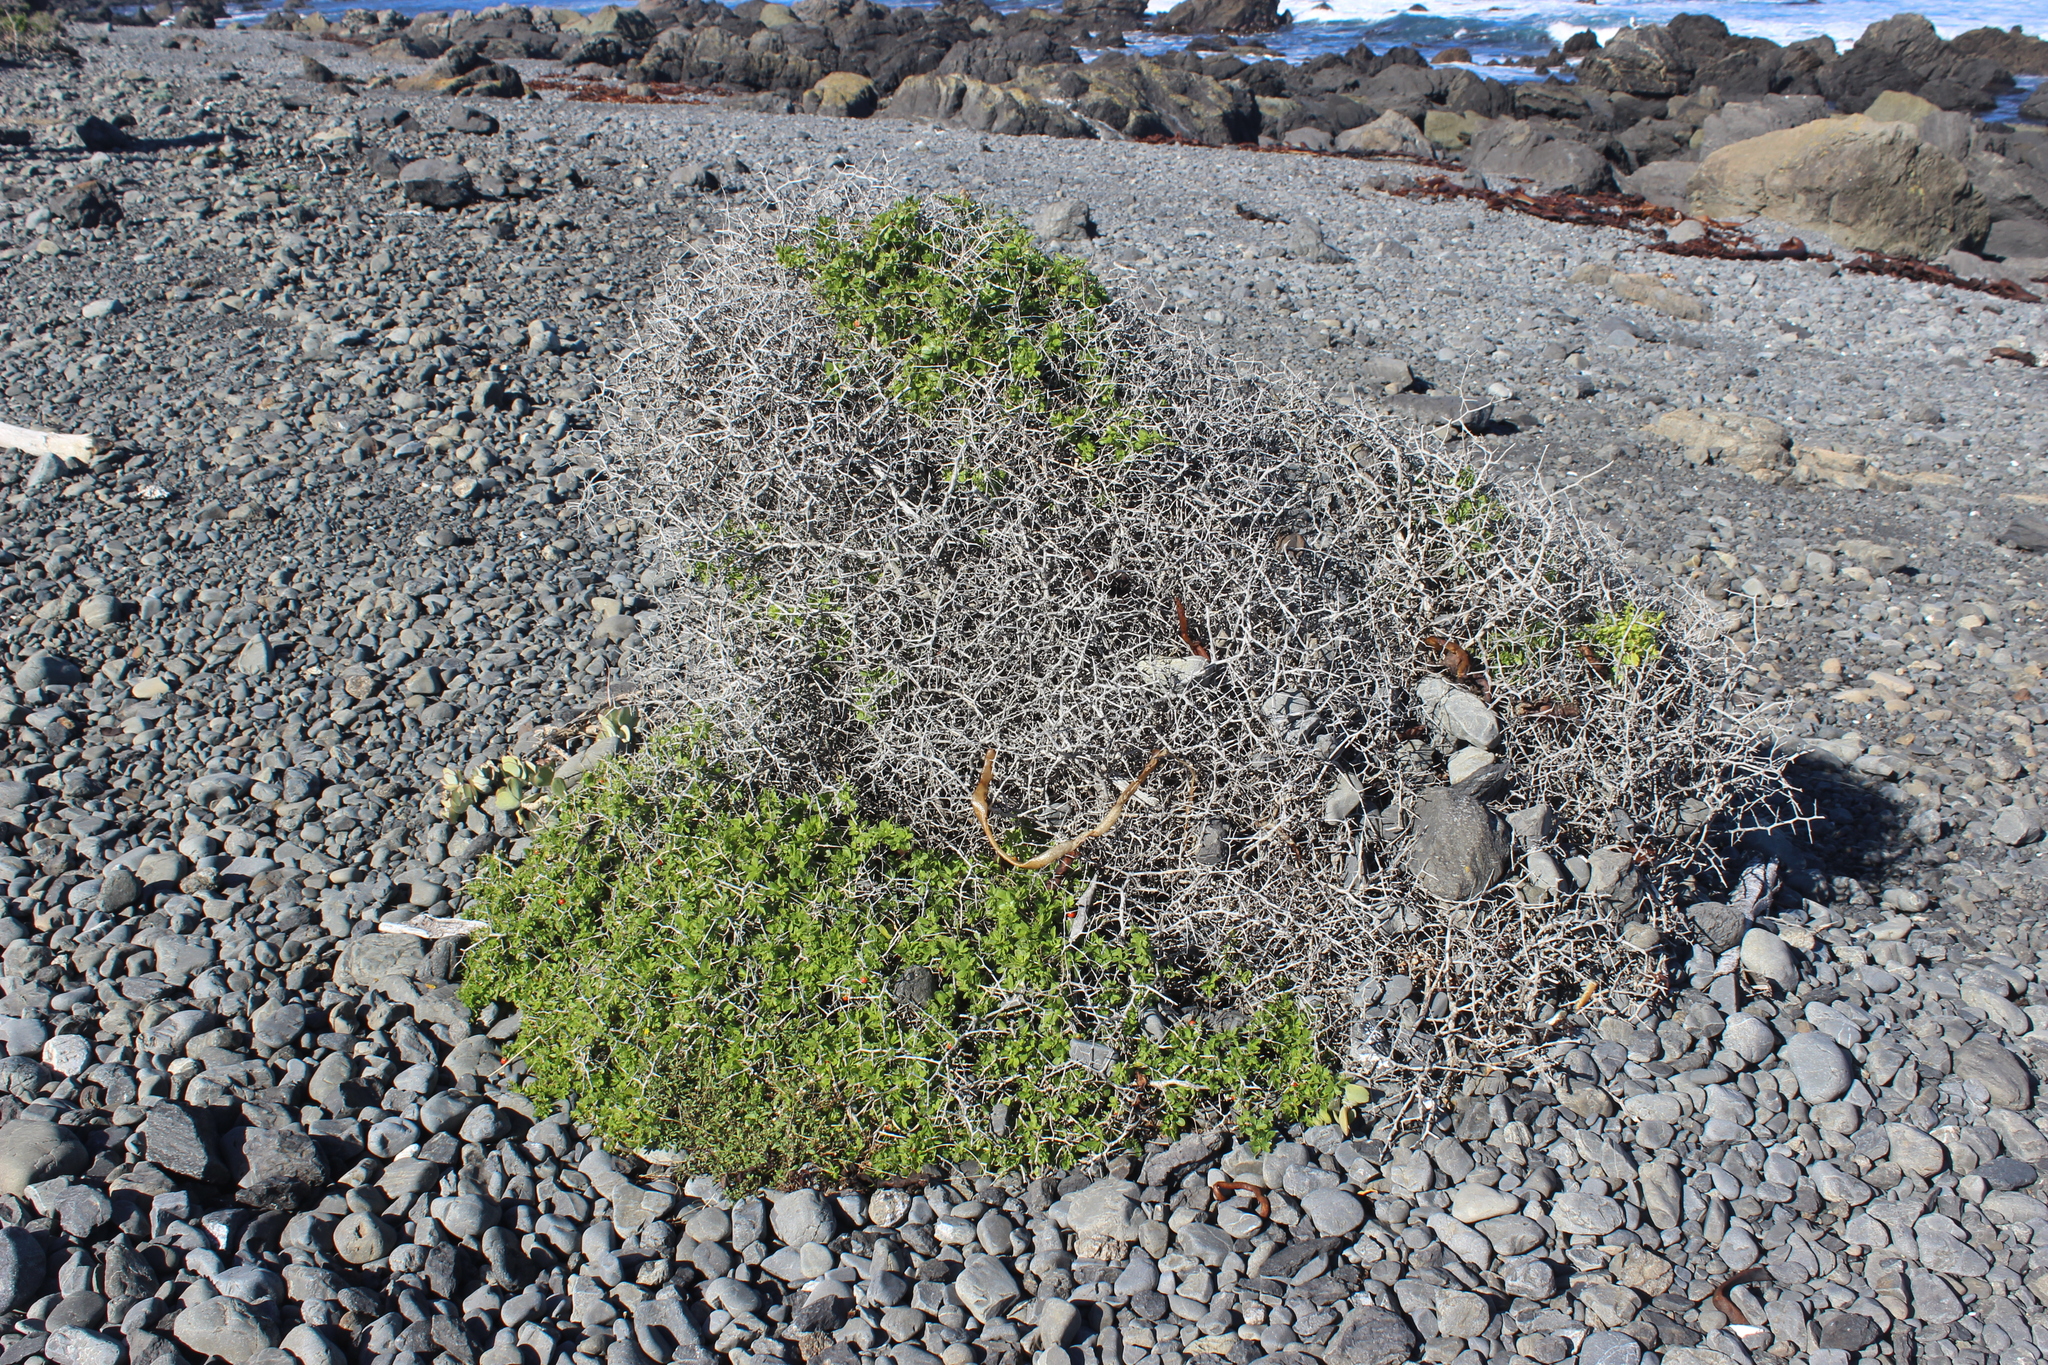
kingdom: Plantae
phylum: Tracheophyta
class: Magnoliopsida
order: Solanales
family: Solanaceae
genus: Lycium
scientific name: Lycium ferocissimum
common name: African boxthorn
